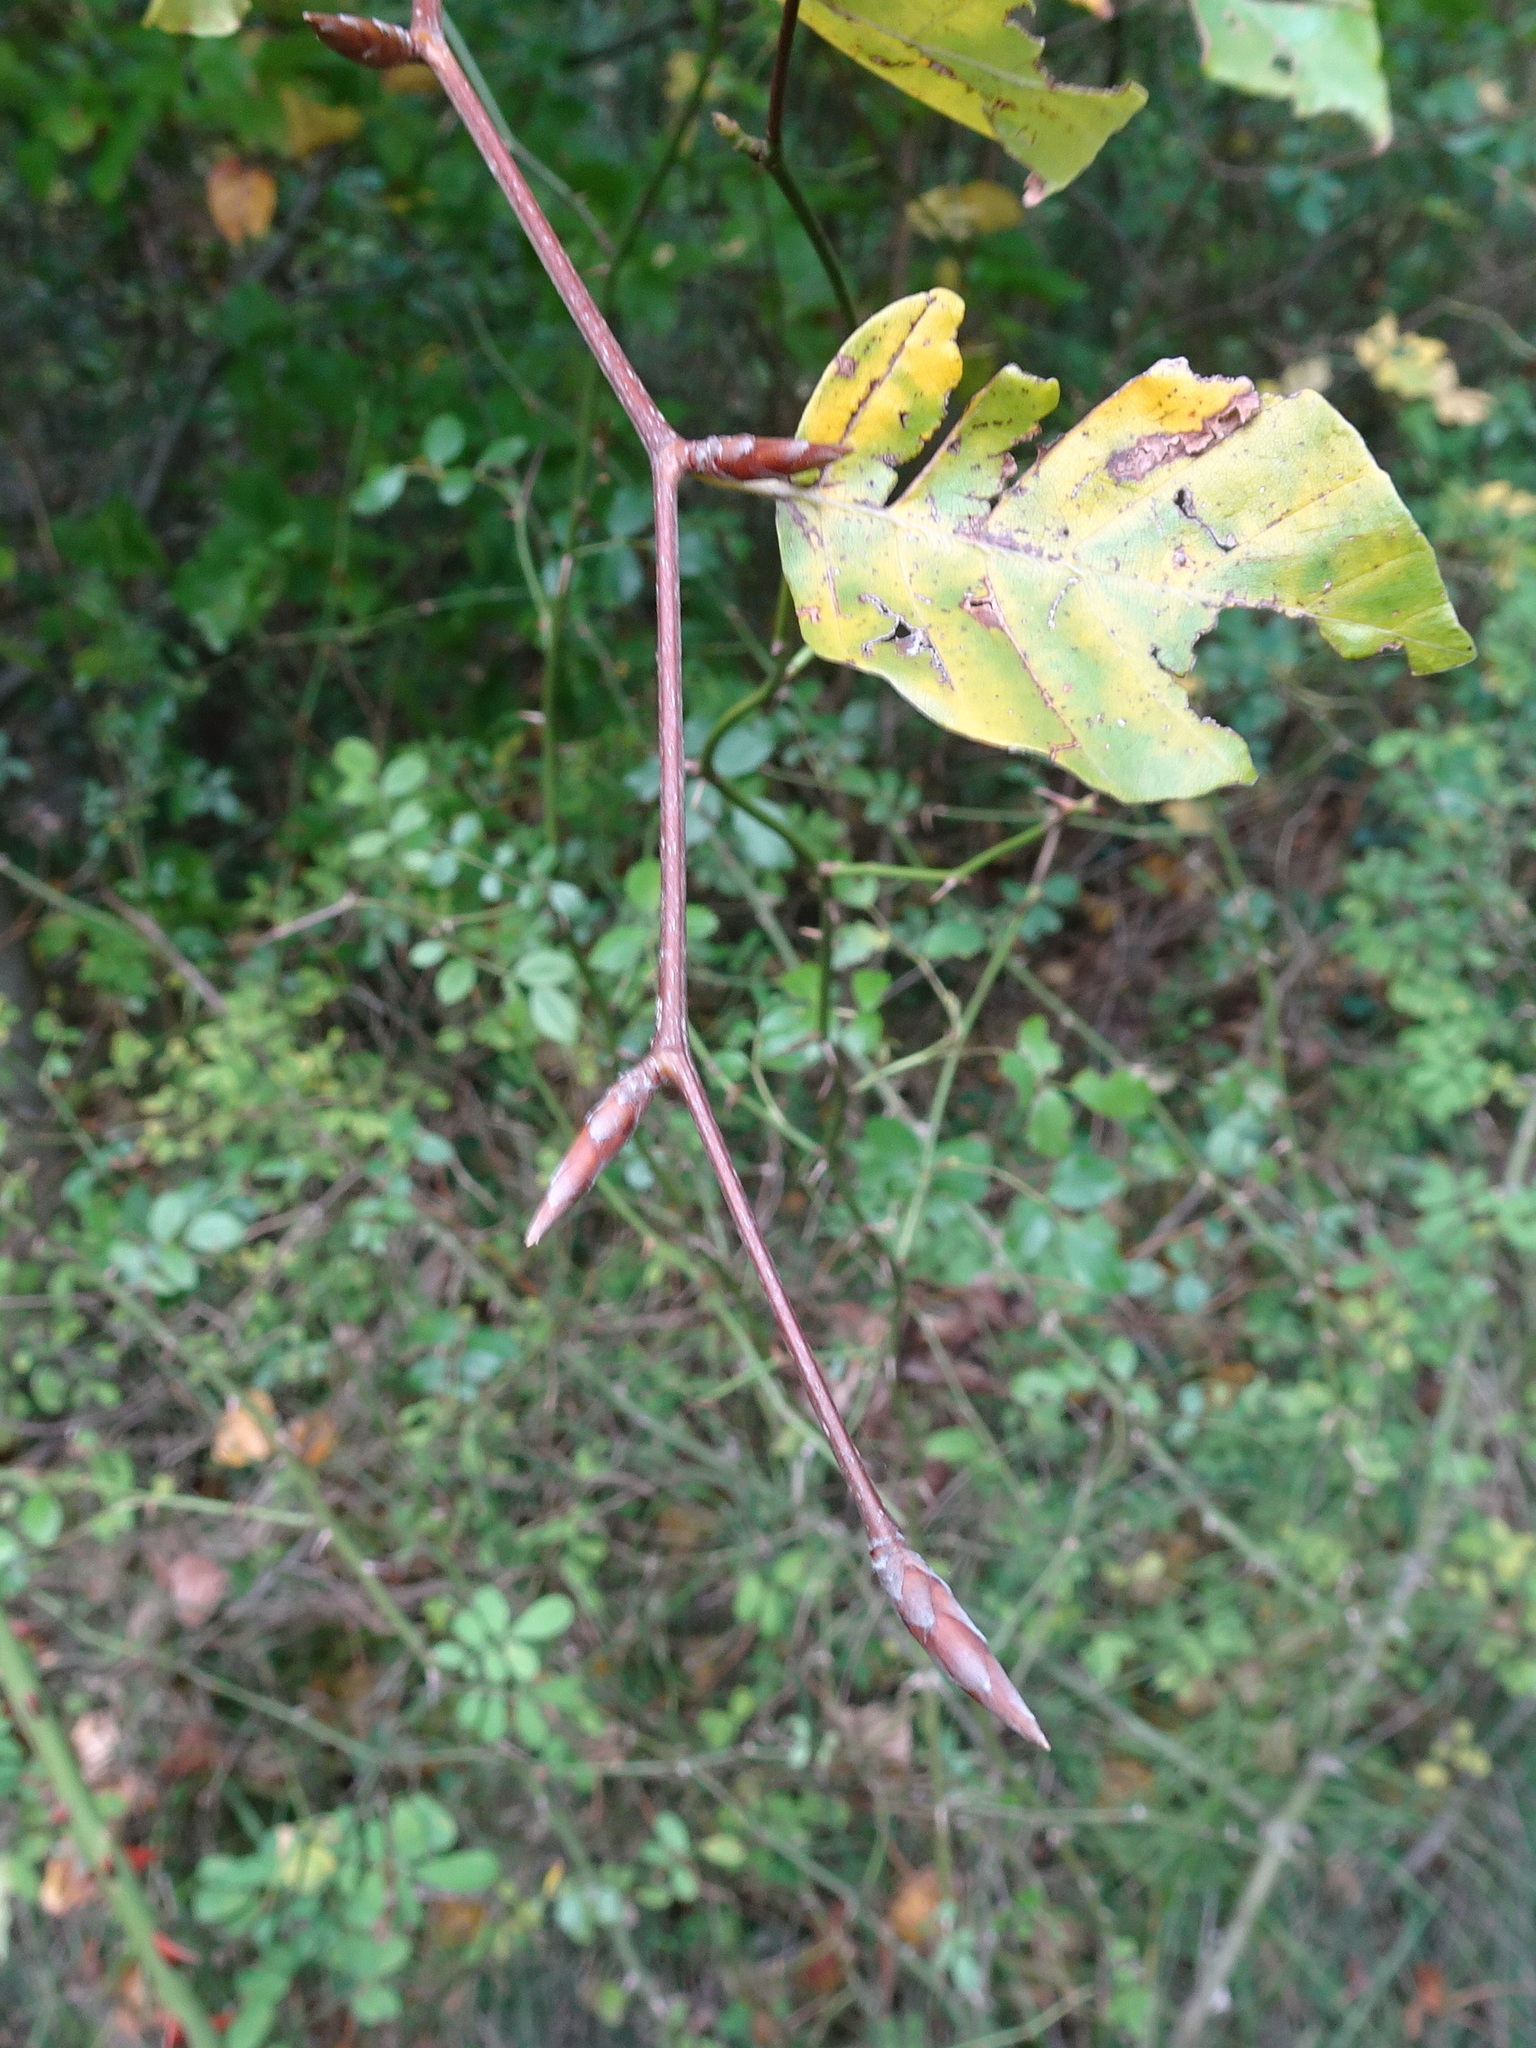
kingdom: Plantae
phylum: Tracheophyta
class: Magnoliopsida
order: Fagales
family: Fagaceae
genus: Fagus
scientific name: Fagus sylvatica
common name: Beech
